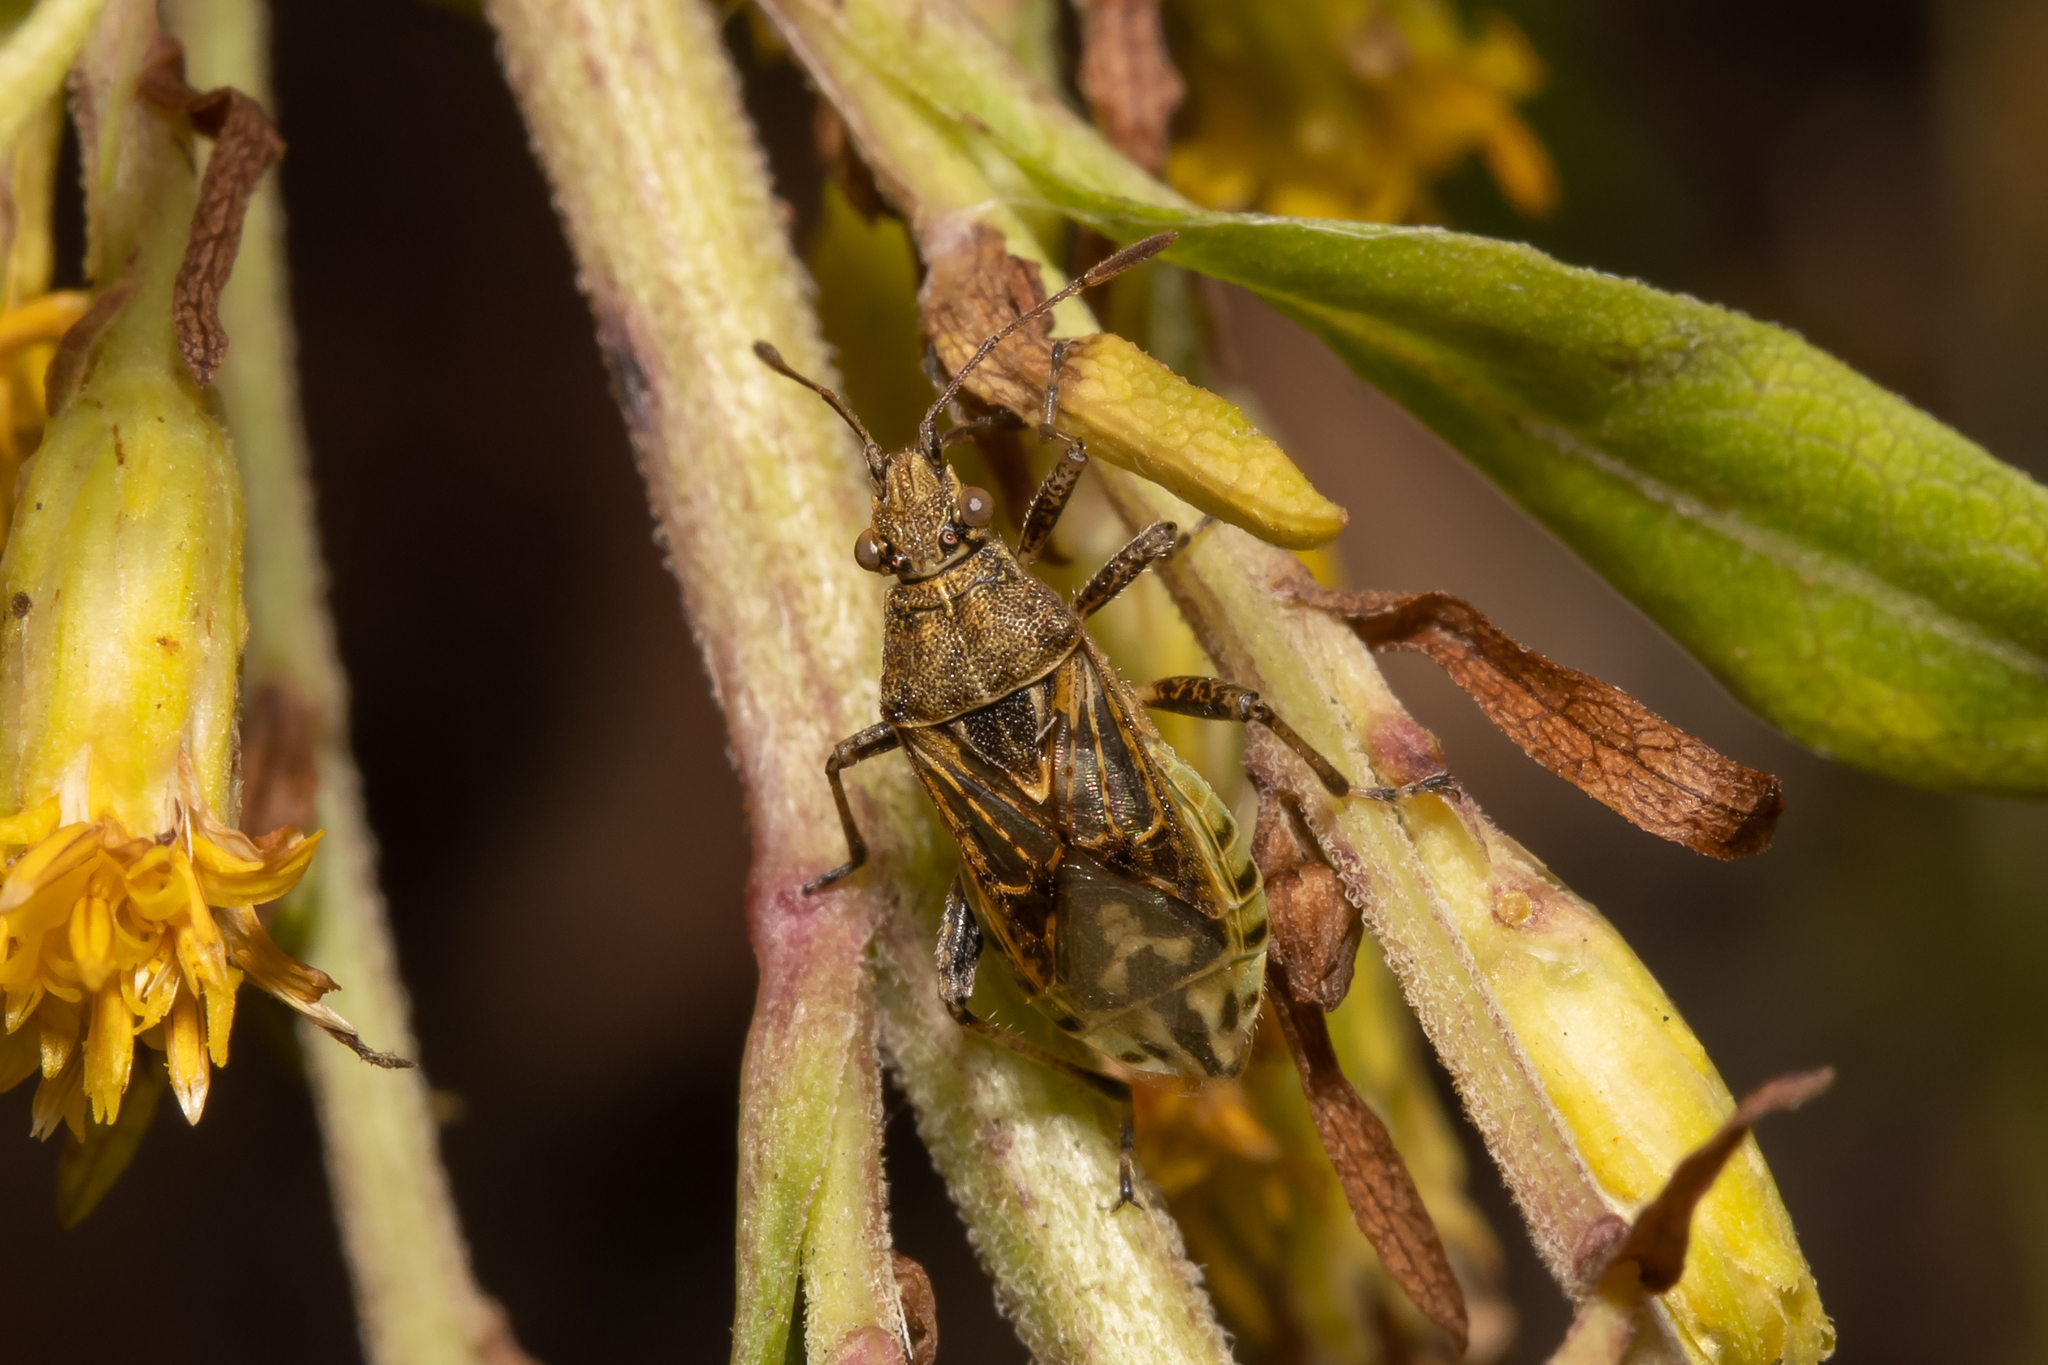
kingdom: Animalia
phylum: Arthropoda
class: Insecta
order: Hemiptera
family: Rhopalidae
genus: Stictopleurus
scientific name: Stictopleurus punctatonervosus
